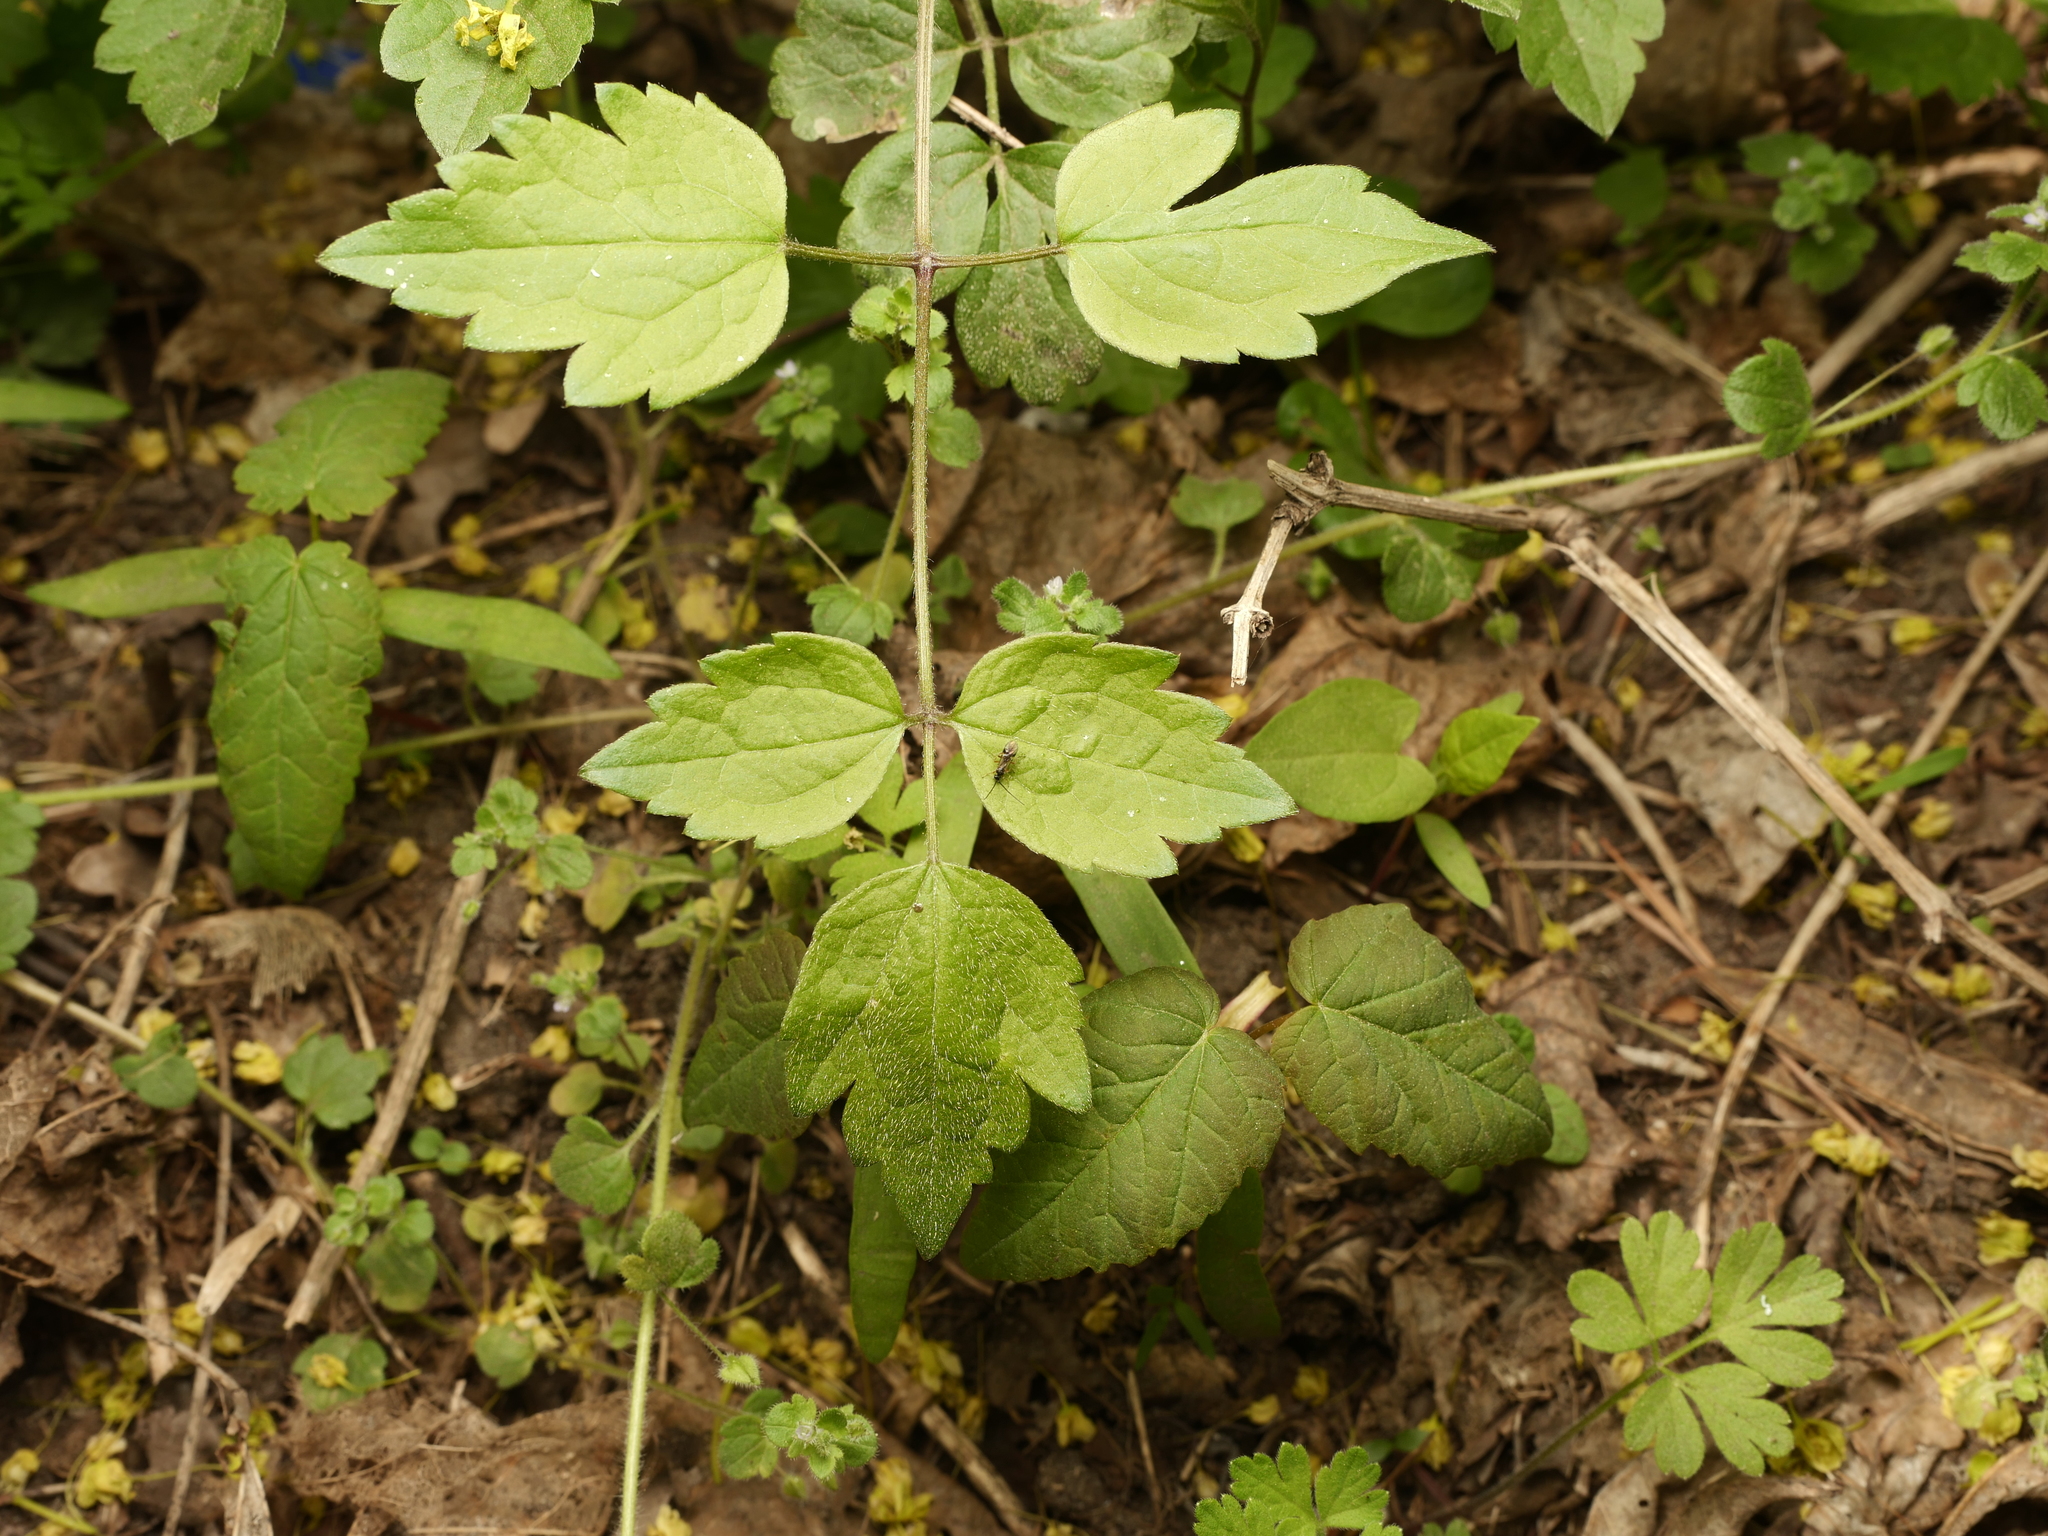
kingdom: Plantae
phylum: Tracheophyta
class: Magnoliopsida
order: Ranunculales
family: Ranunculaceae
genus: Clematis
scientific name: Clematis vitalba
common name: Evergreen clematis
